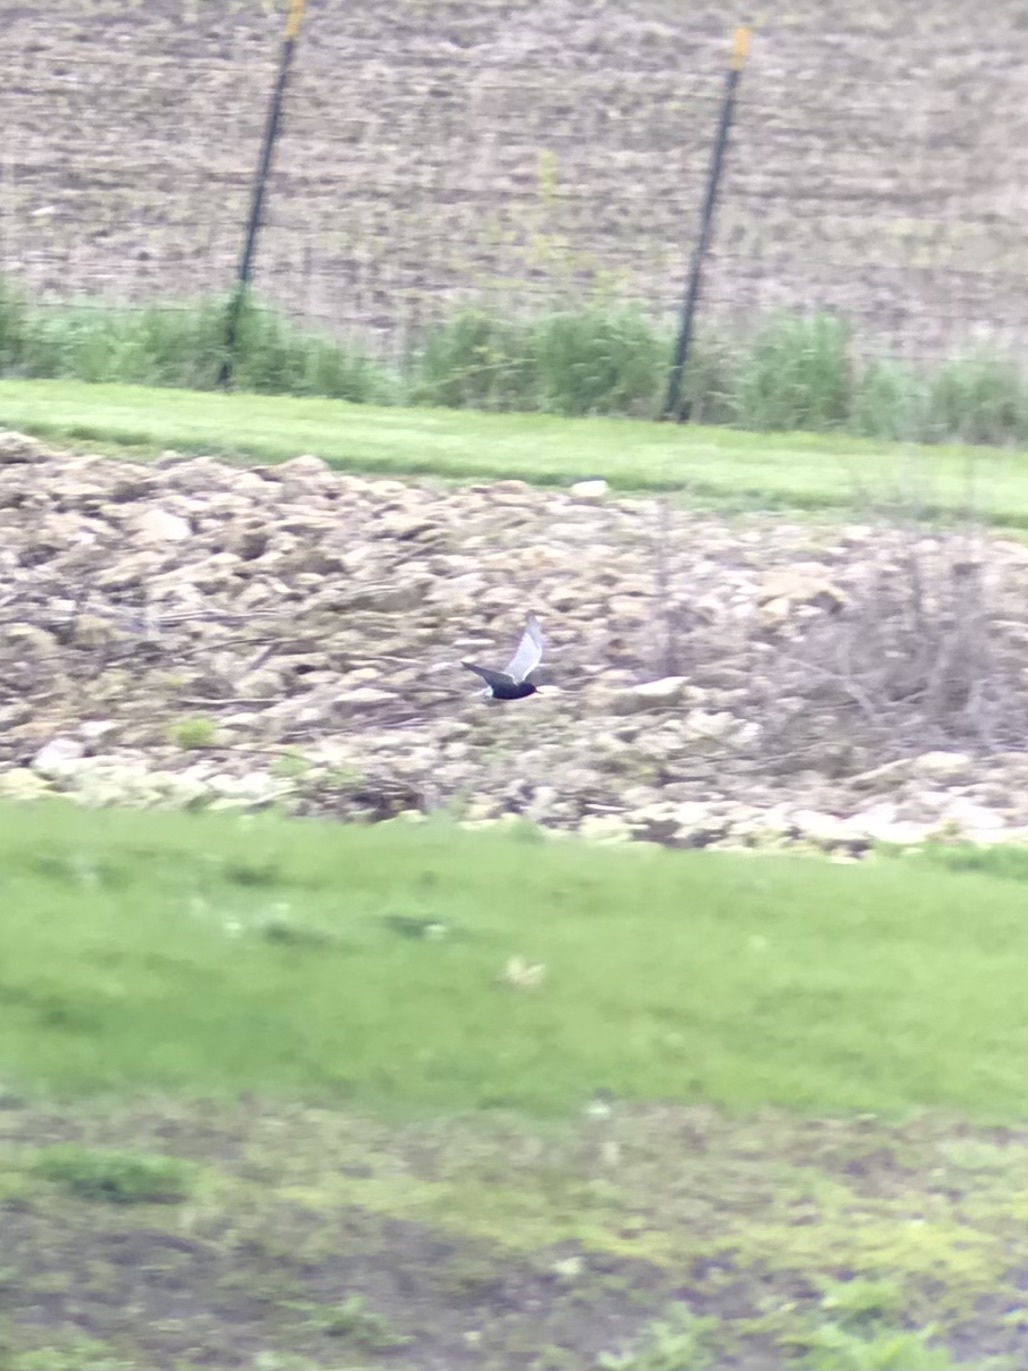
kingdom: Animalia
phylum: Chordata
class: Aves
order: Charadriiformes
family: Laridae
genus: Chlidonias
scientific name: Chlidonias niger
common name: Black tern
